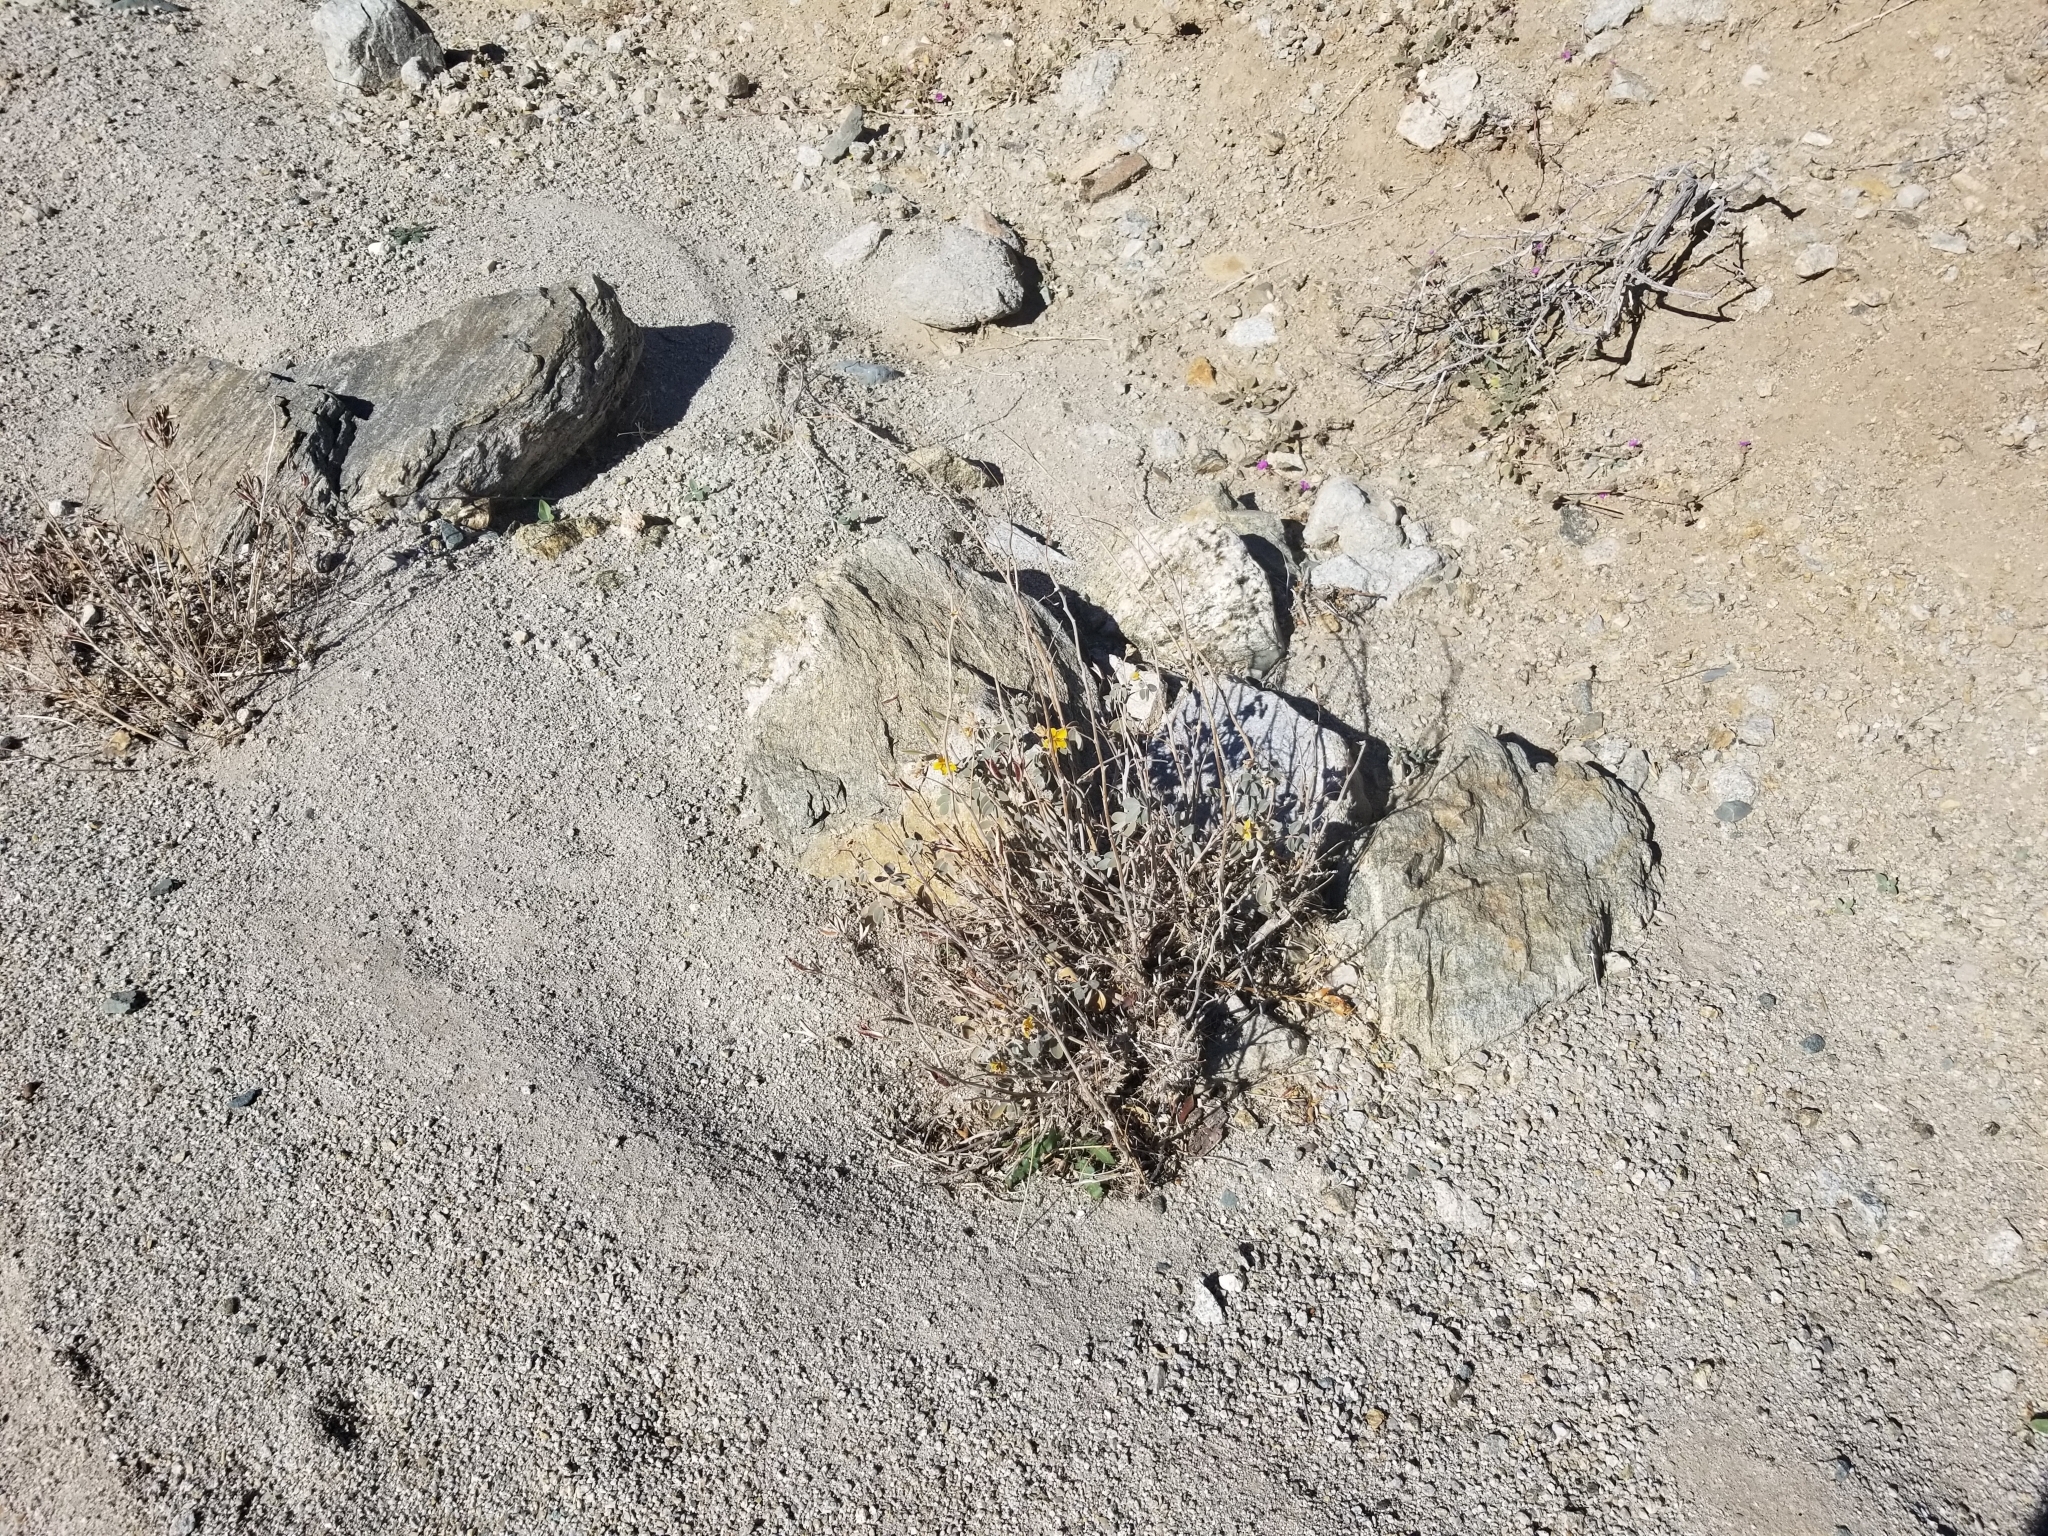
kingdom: Plantae
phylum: Tracheophyta
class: Magnoliopsida
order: Fabales
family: Fabaceae
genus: Senna
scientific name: Senna covesii
